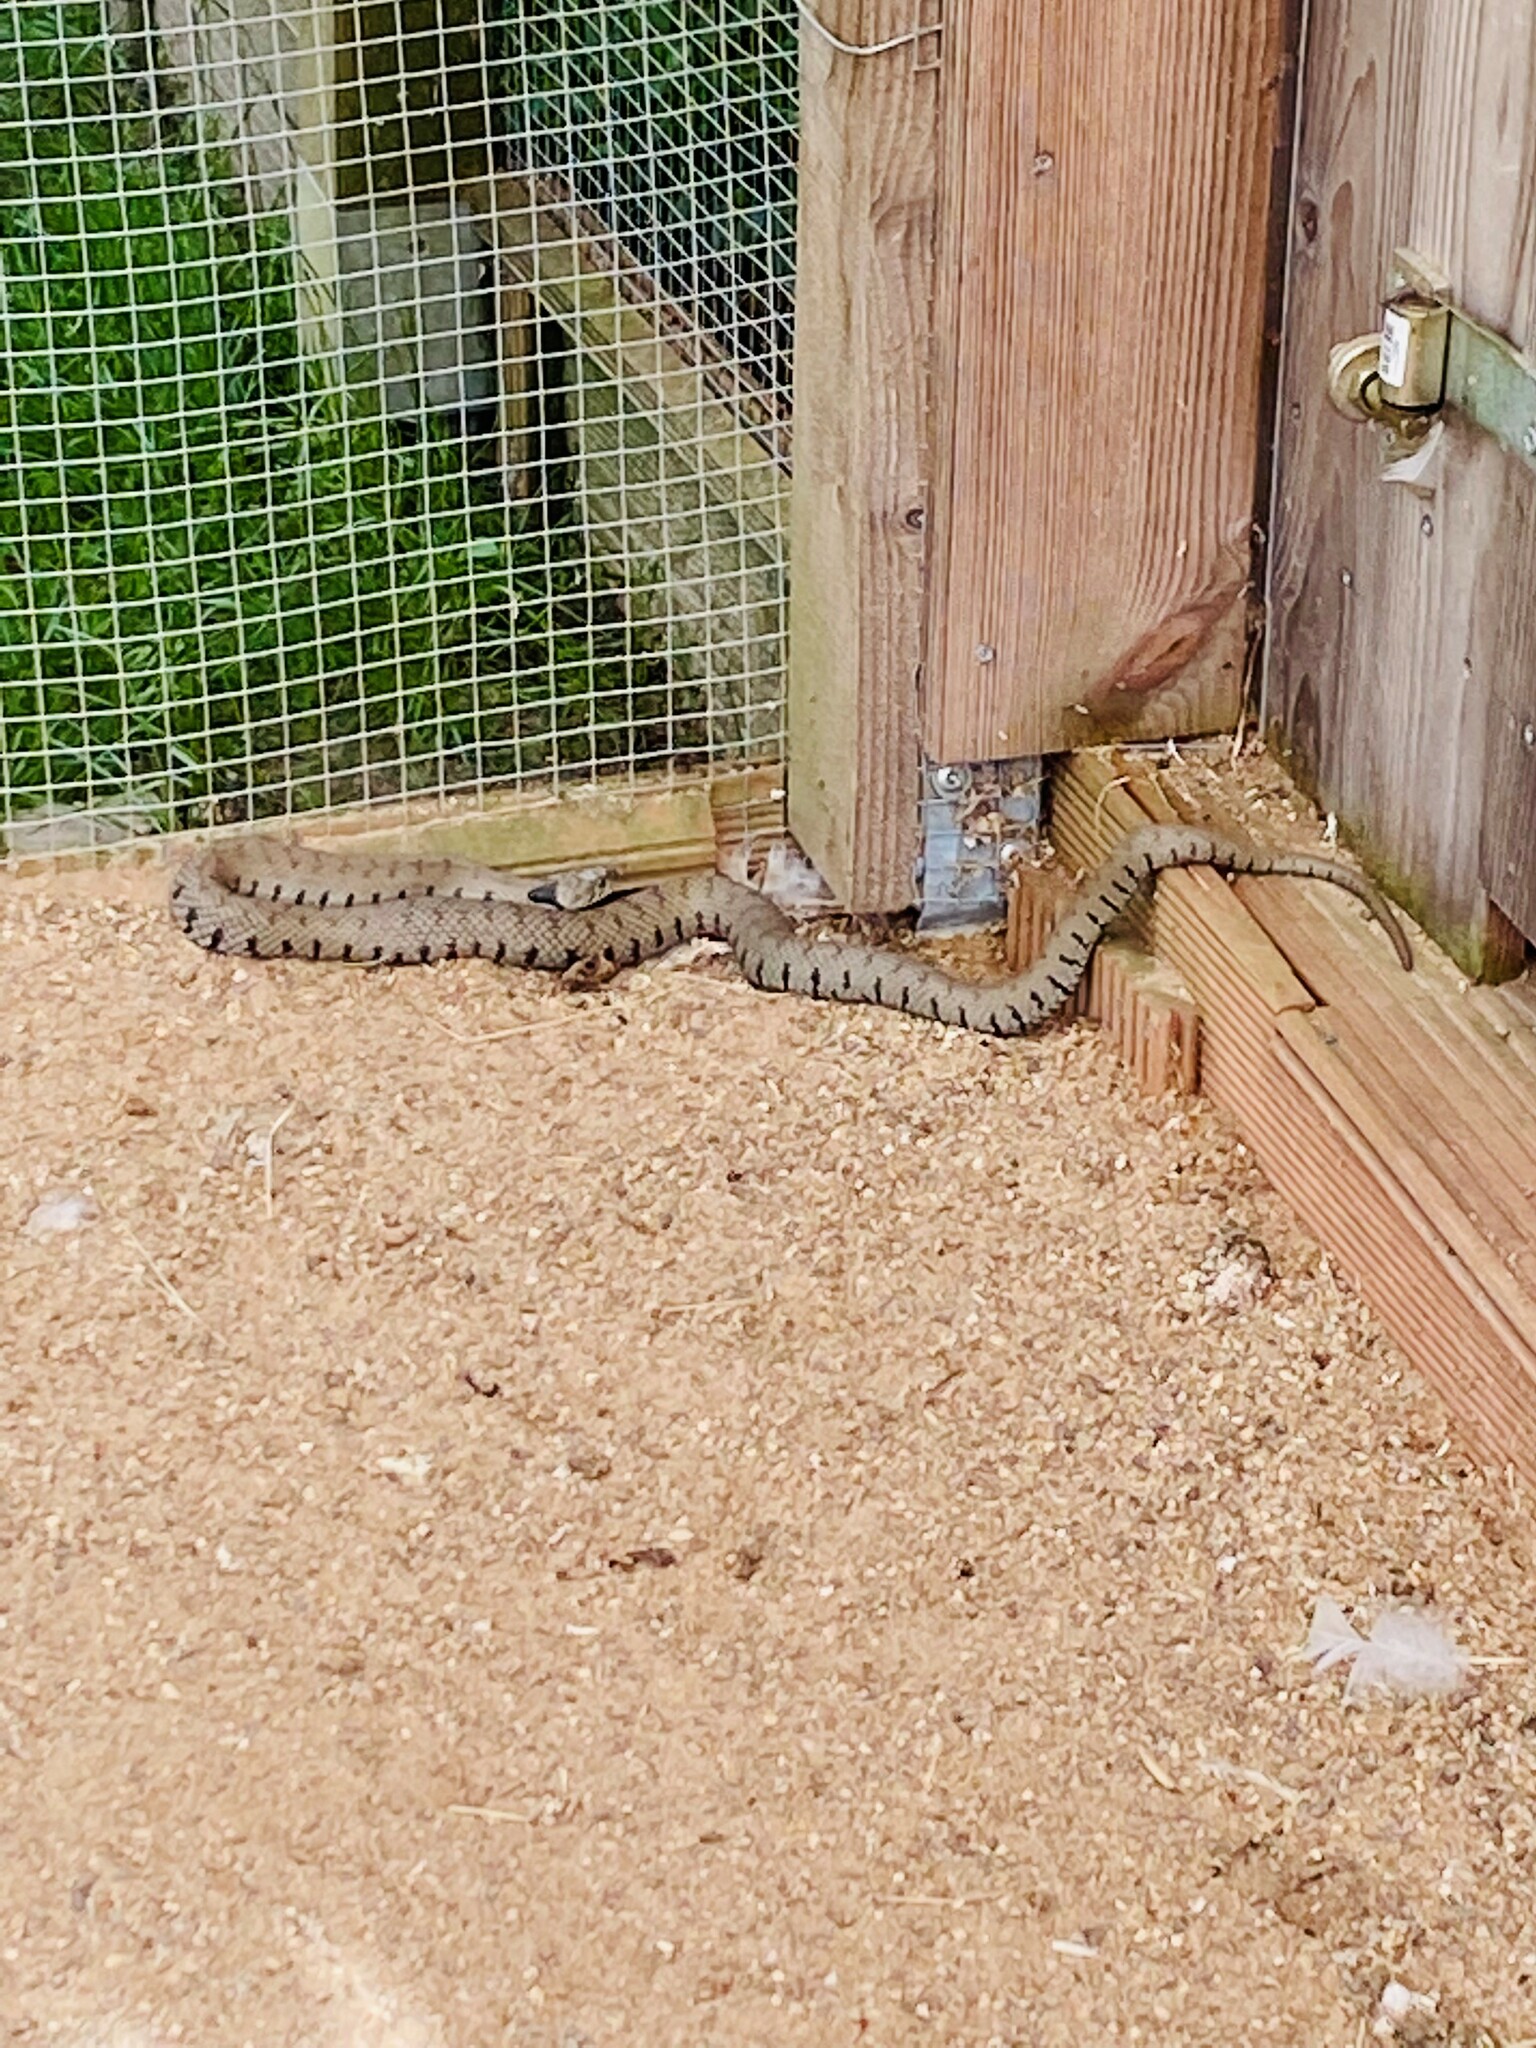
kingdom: Animalia
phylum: Chordata
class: Squamata
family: Colubridae
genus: Natrix
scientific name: Natrix helvetica
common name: Banded grass snake
